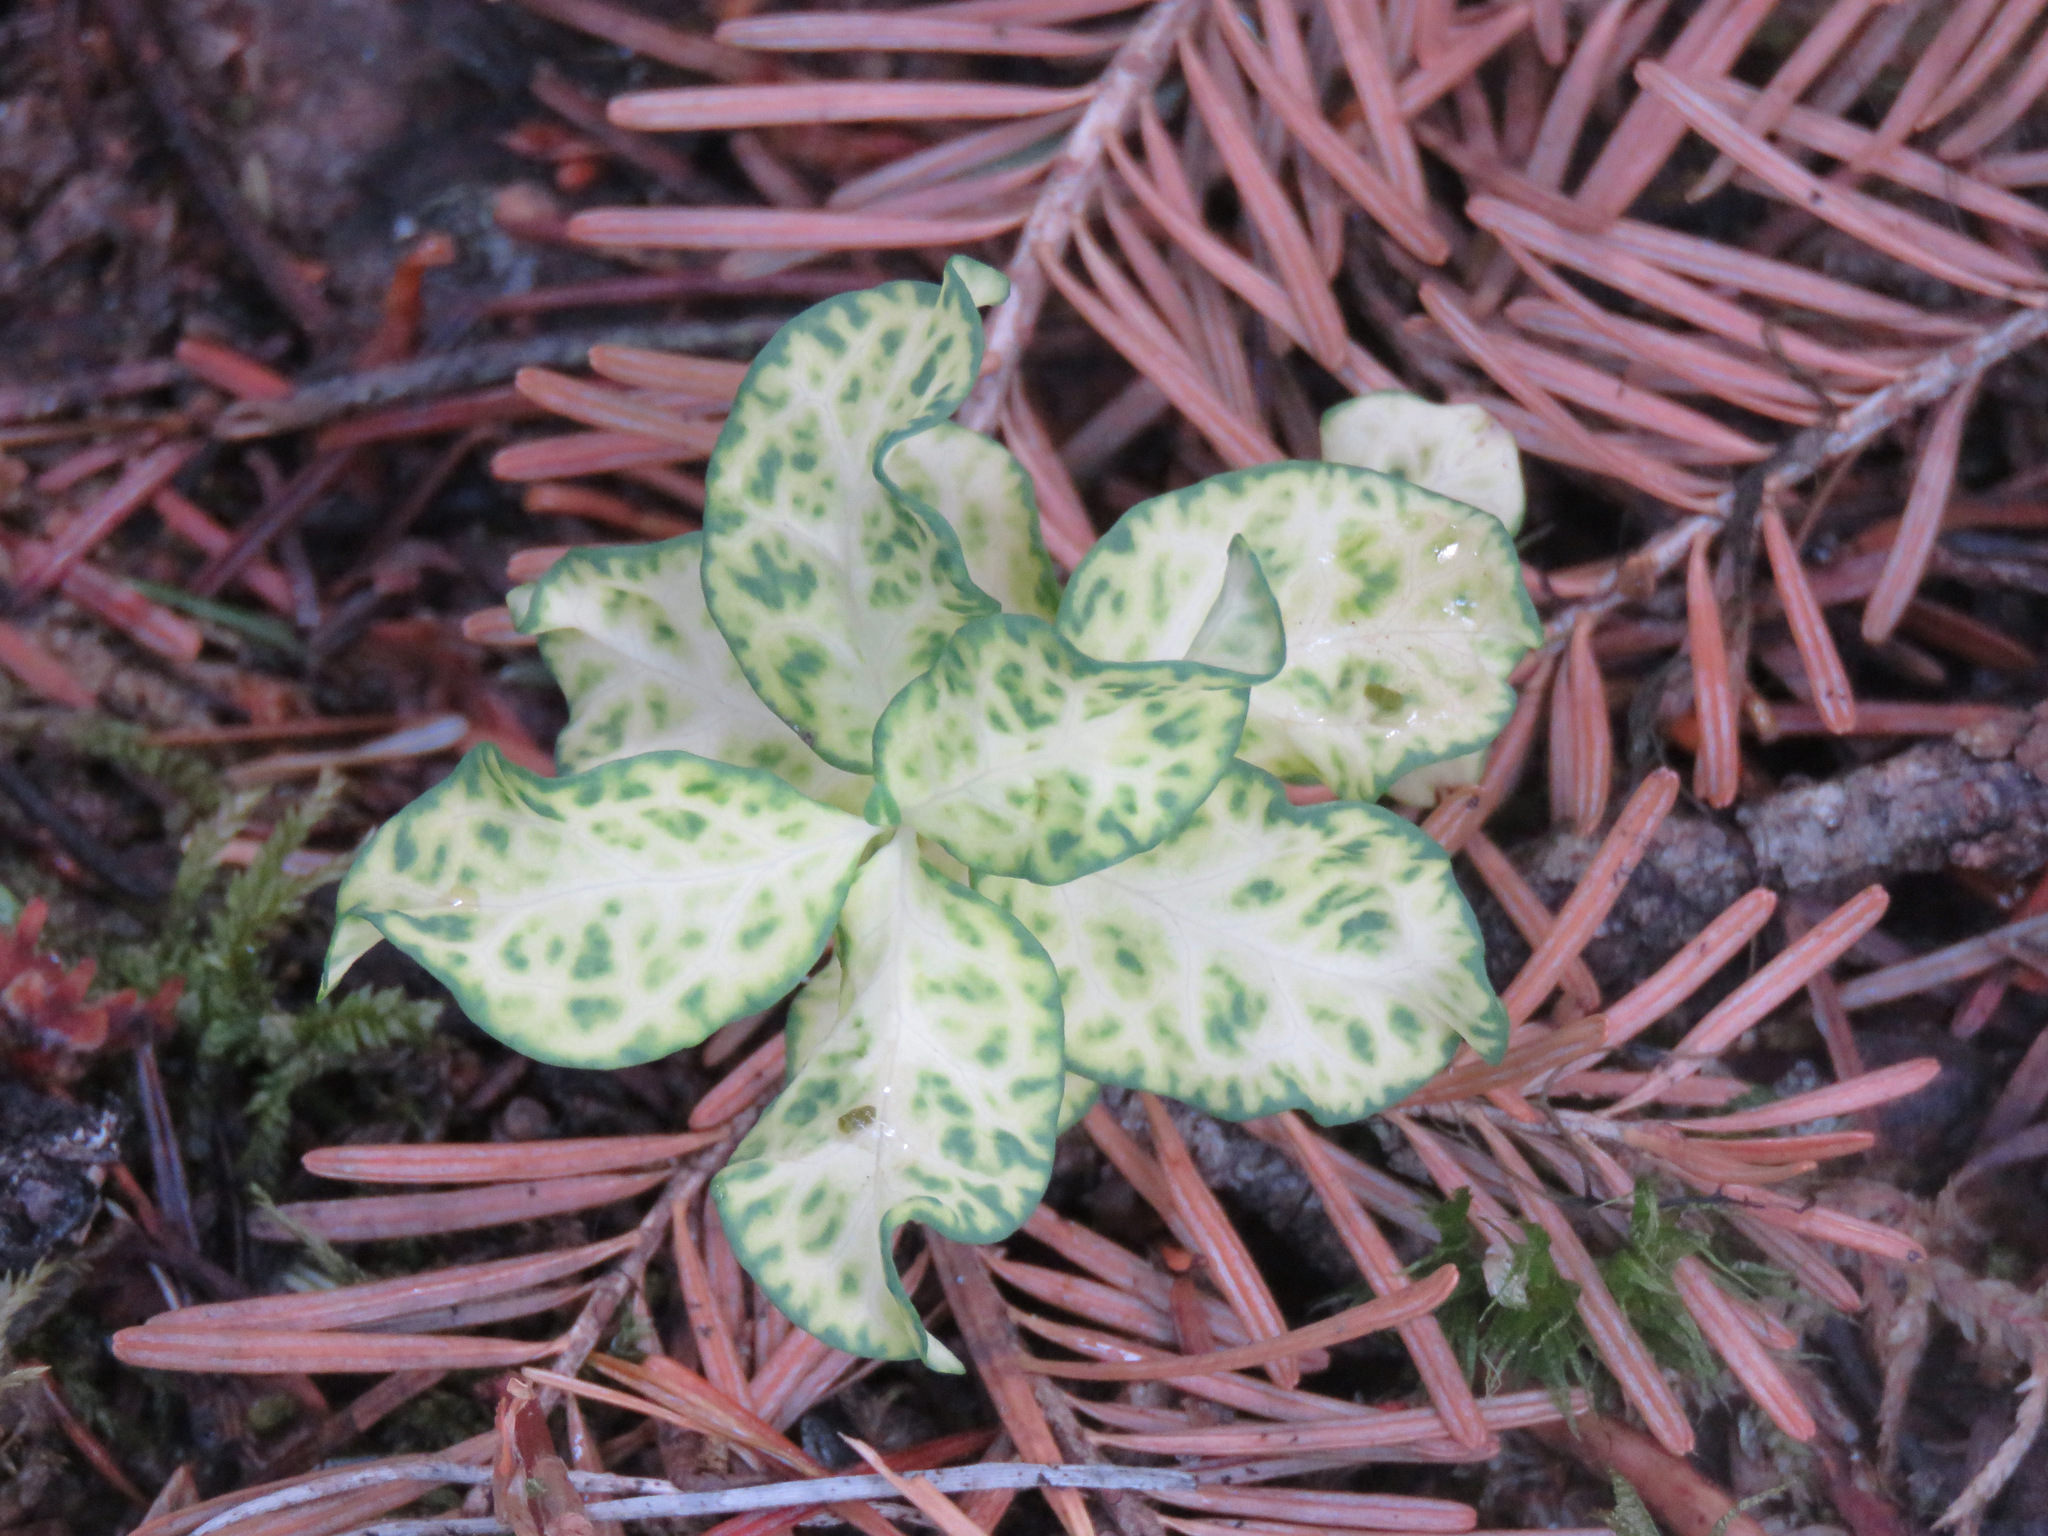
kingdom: Plantae
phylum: Tracheophyta
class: Magnoliopsida
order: Santalales
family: Comandraceae
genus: Geocaulon
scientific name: Geocaulon lividum
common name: Earthberry
